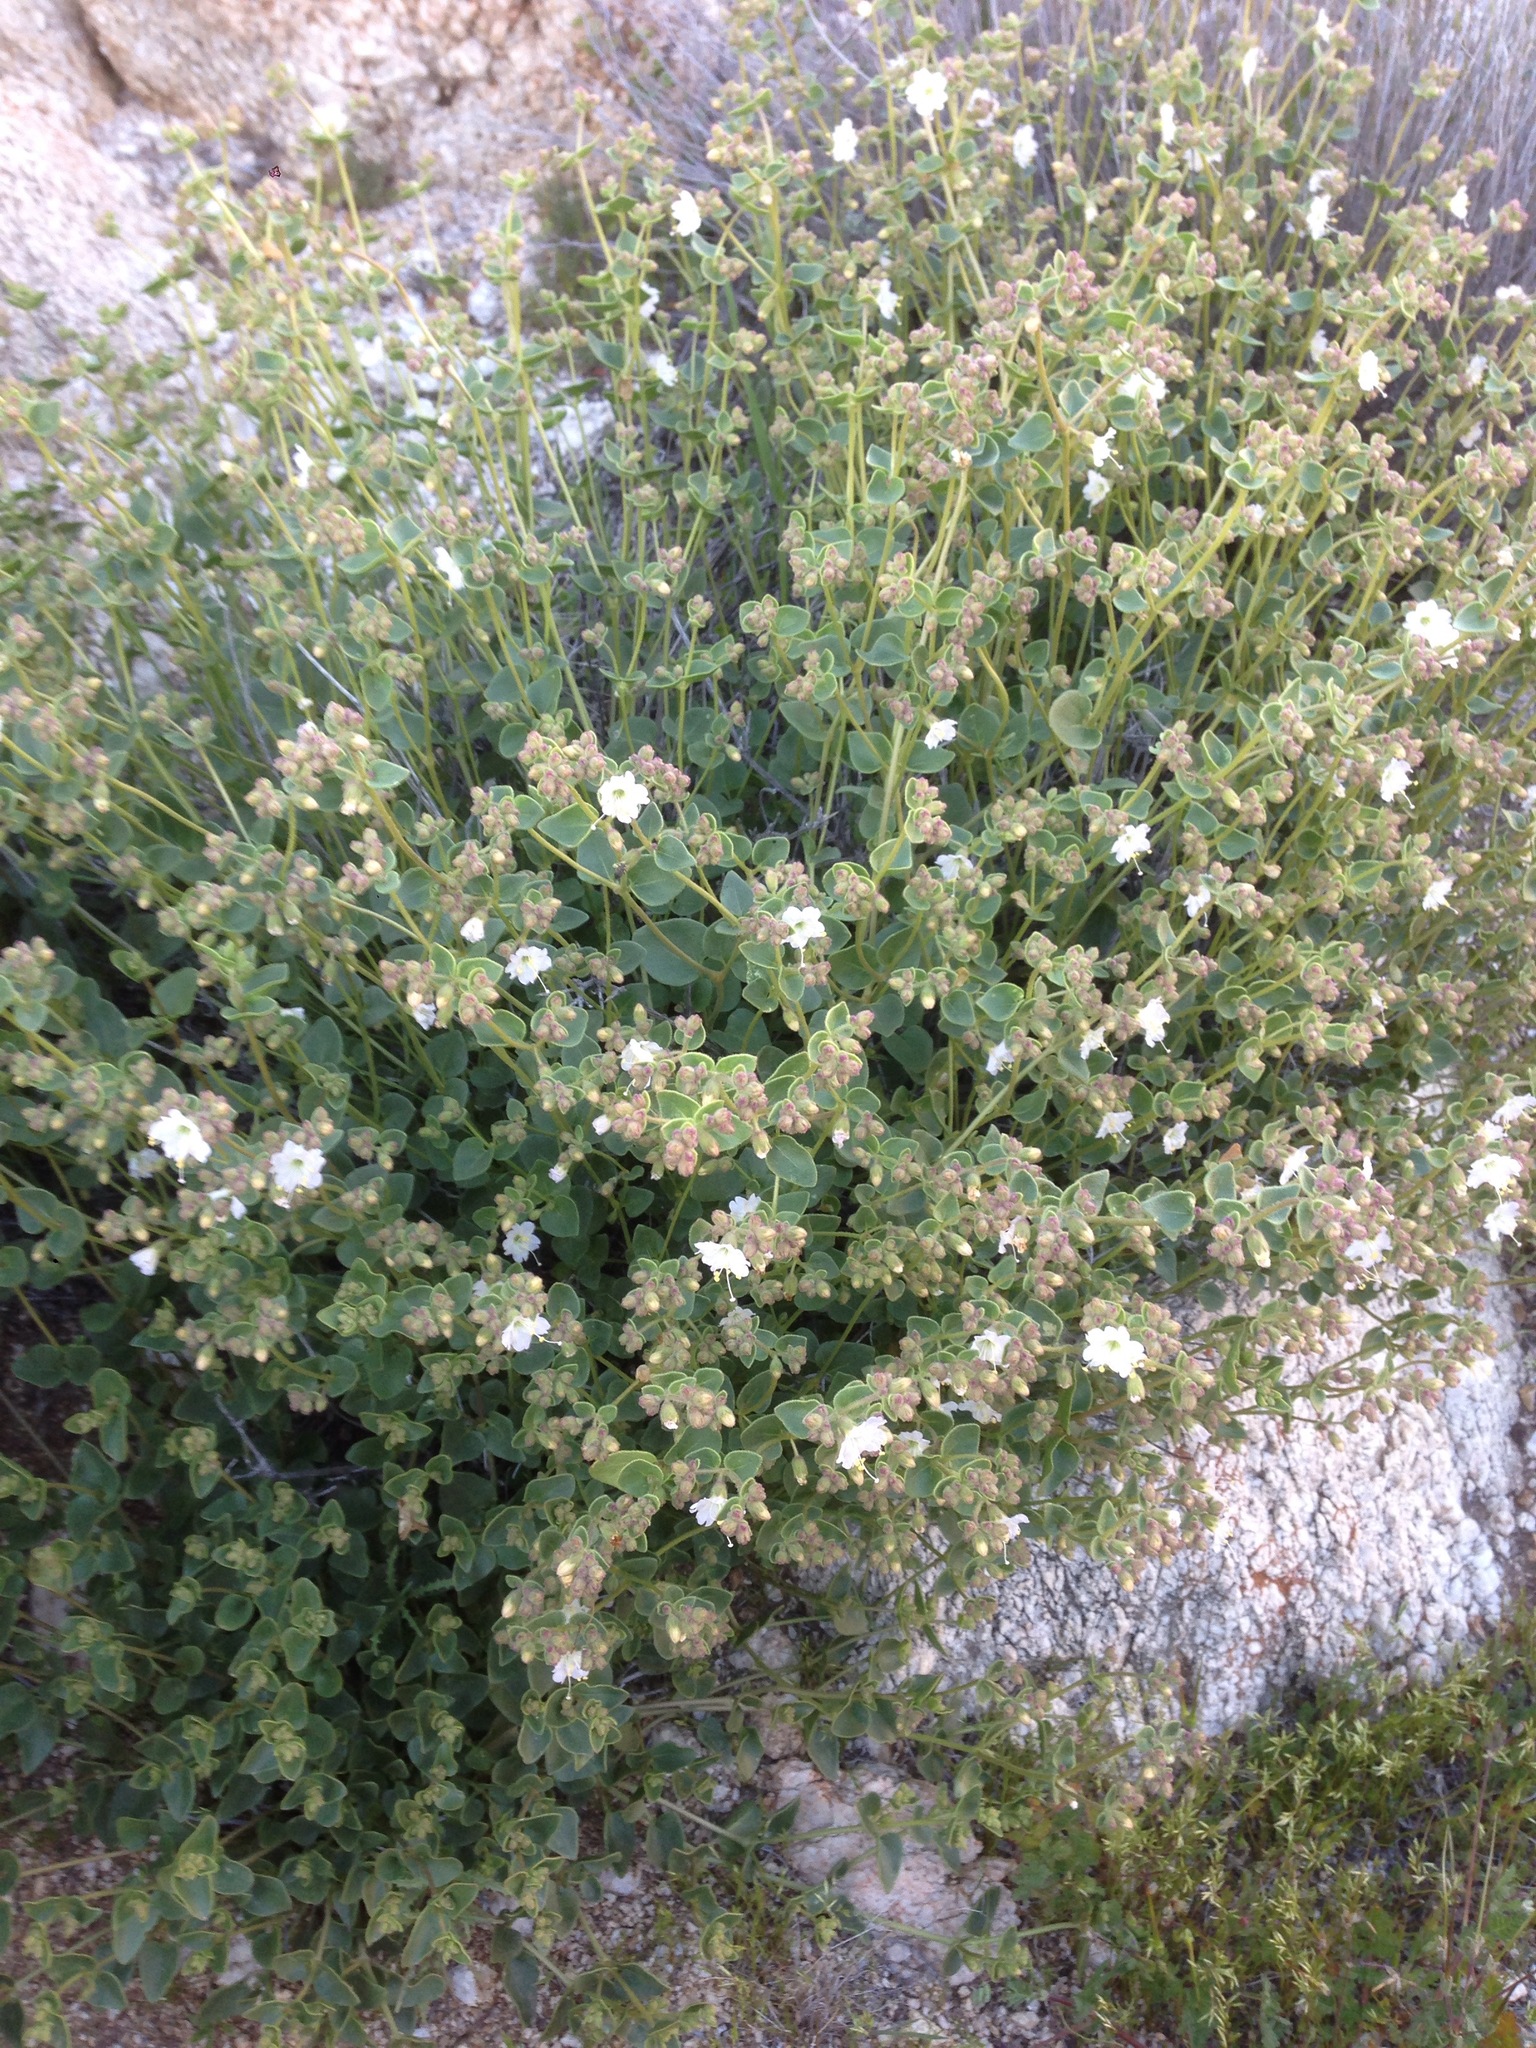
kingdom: Plantae
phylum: Tracheophyta
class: Magnoliopsida
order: Caryophyllales
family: Nyctaginaceae
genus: Mirabilis
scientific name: Mirabilis laevis
